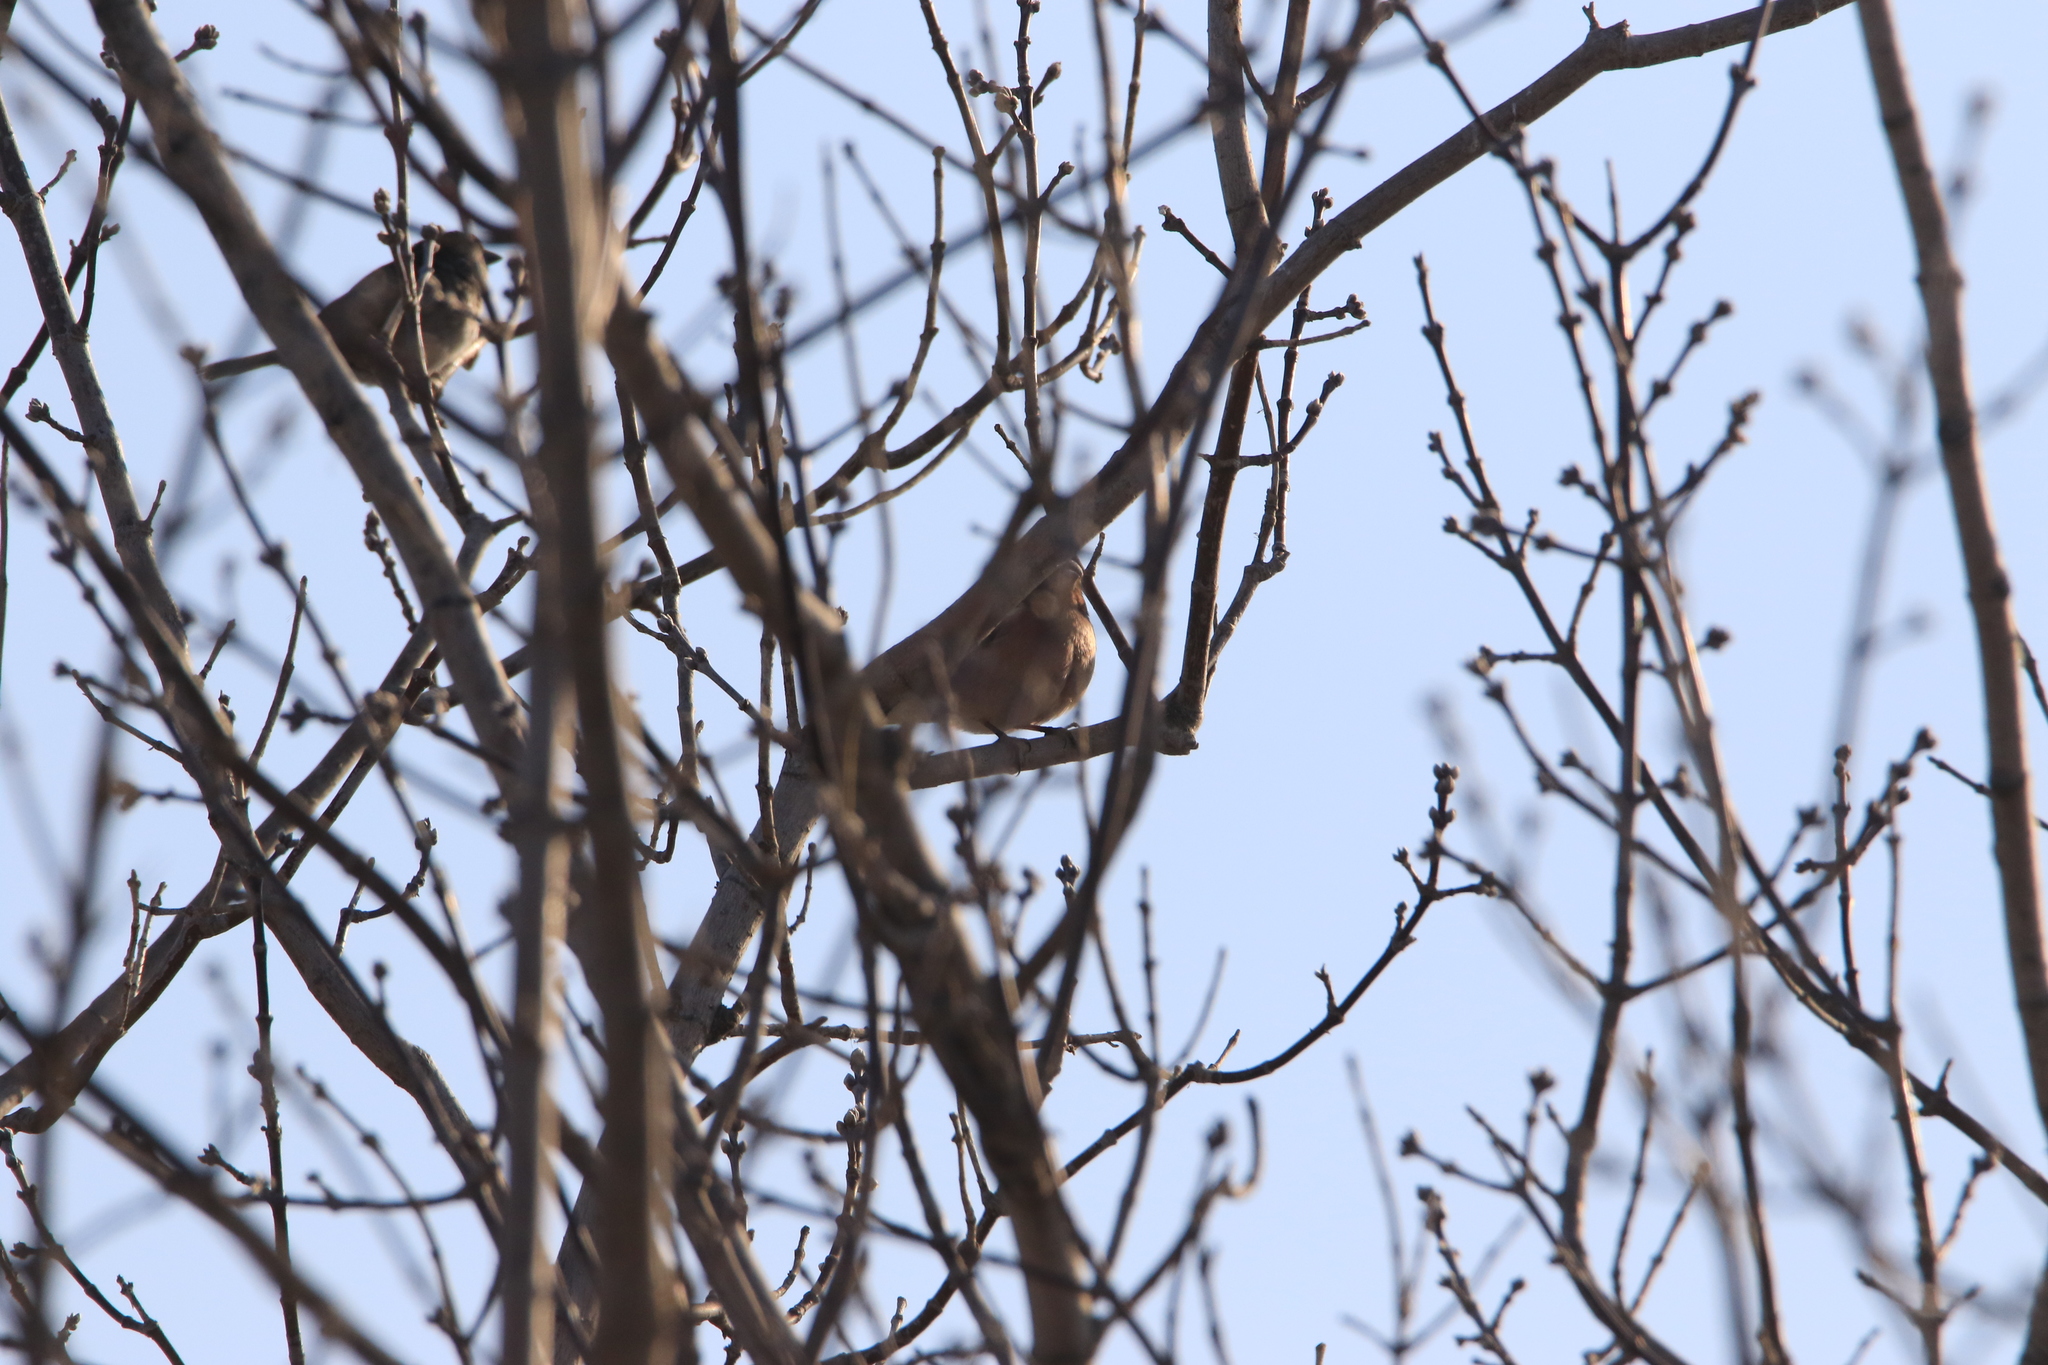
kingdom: Animalia
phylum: Chordata
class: Aves
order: Passeriformes
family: Fringillidae
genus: Fringilla
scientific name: Fringilla coelebs
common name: Common chaffinch
